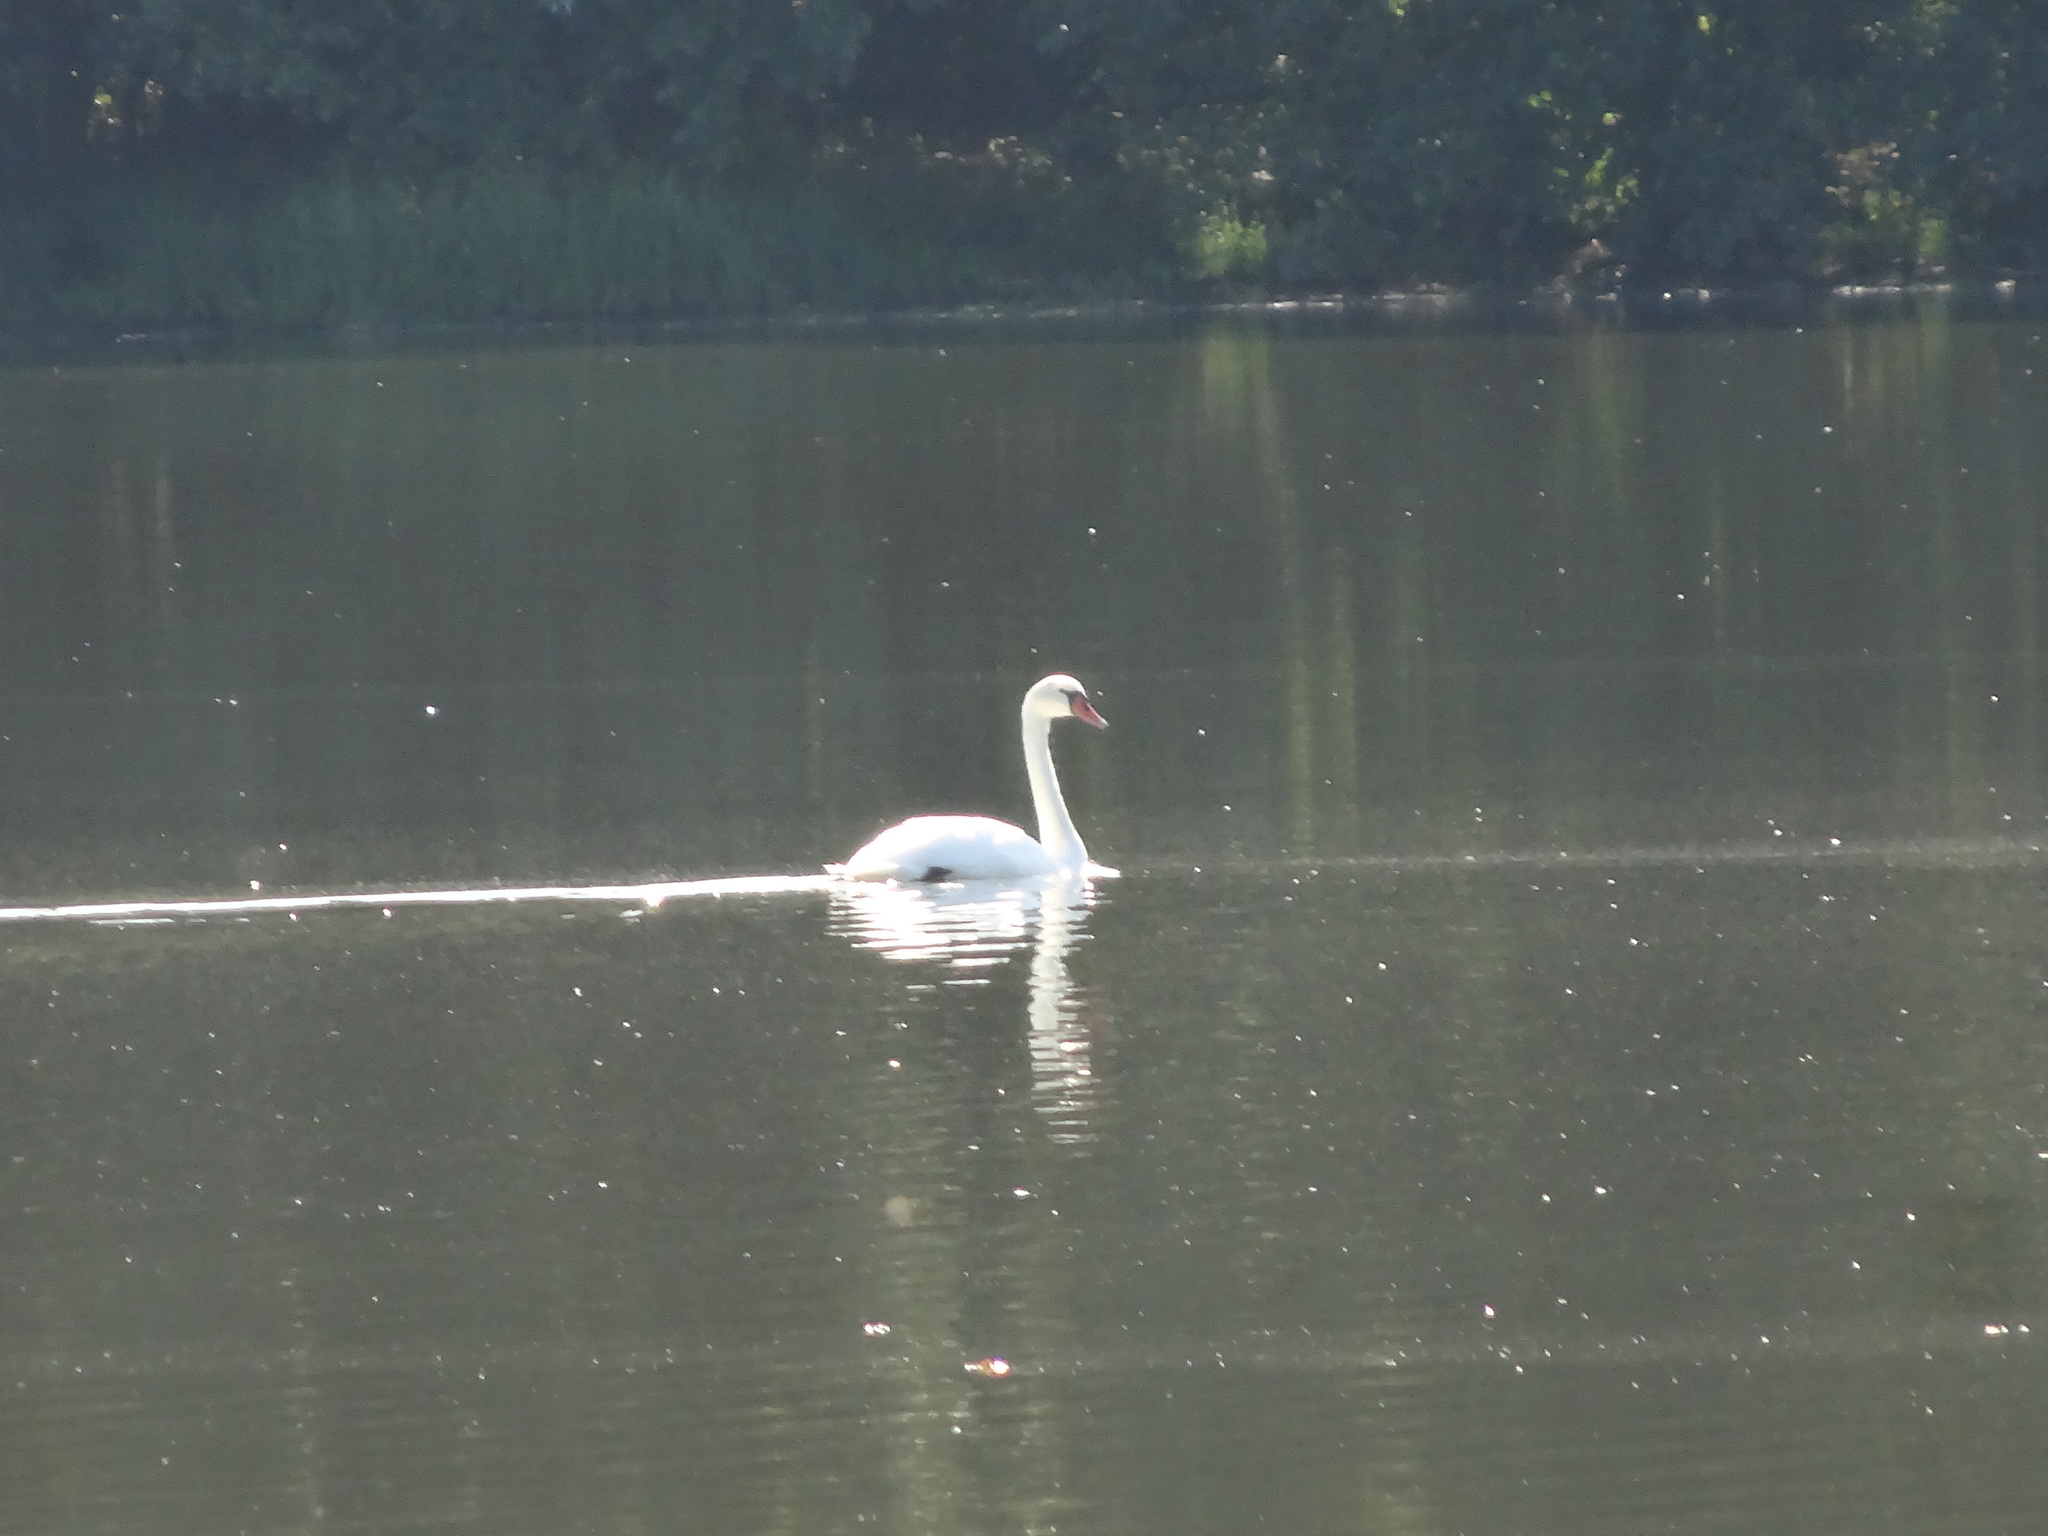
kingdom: Animalia
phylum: Chordata
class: Aves
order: Anseriformes
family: Anatidae
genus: Cygnus
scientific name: Cygnus olor
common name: Mute swan
